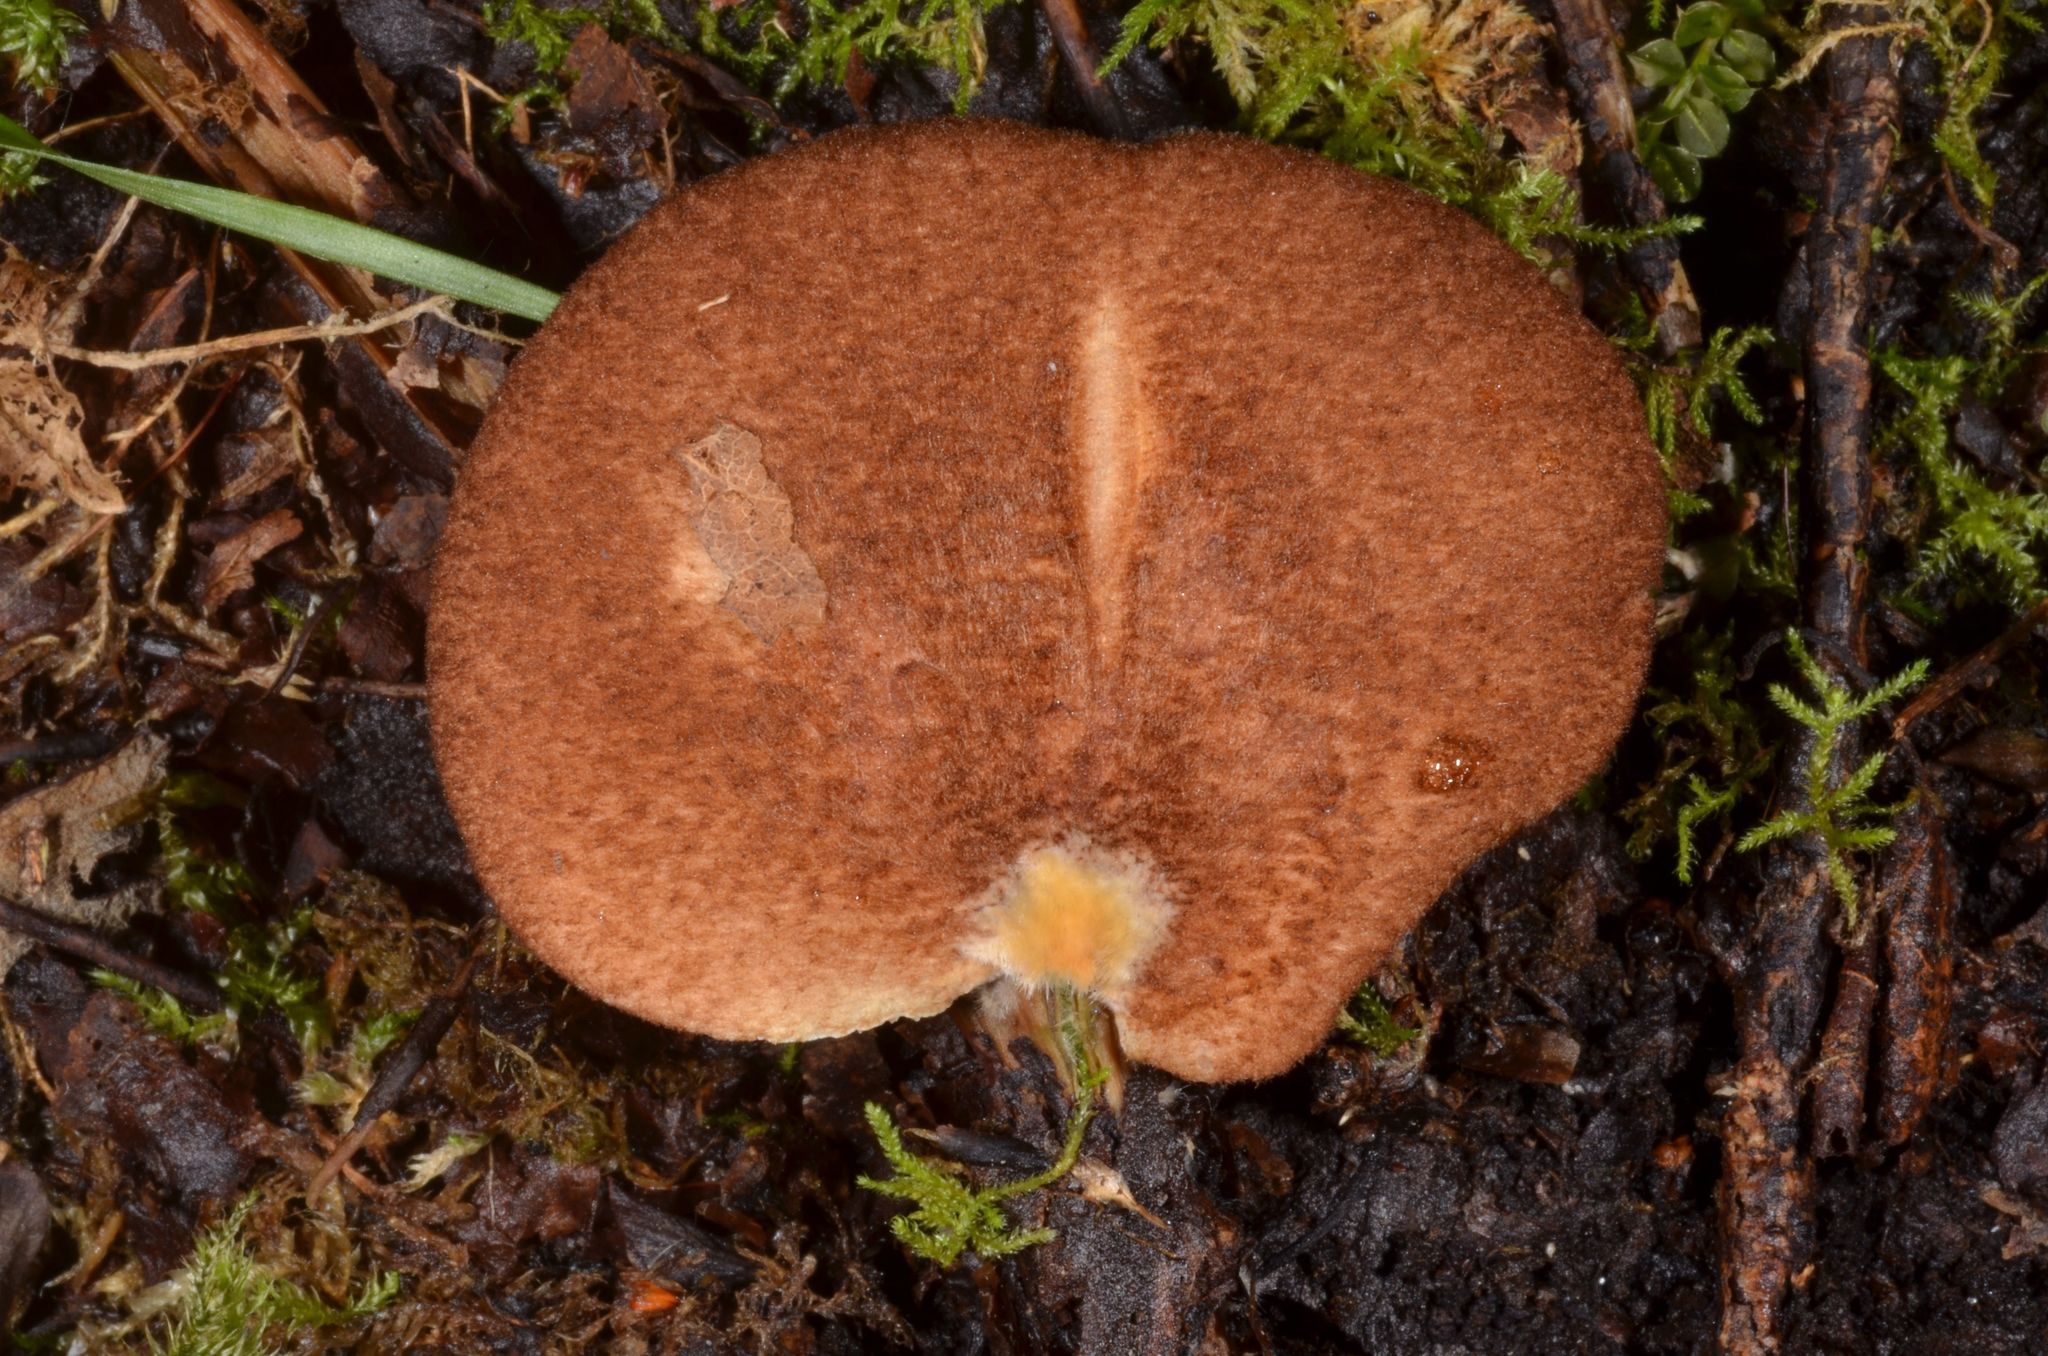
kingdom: Fungi
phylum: Basidiomycota
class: Agaricomycetes
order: Agaricales
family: Crepidotaceae
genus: Crepidotus
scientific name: Crepidotus crocophyllus
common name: Saffron oysterling
